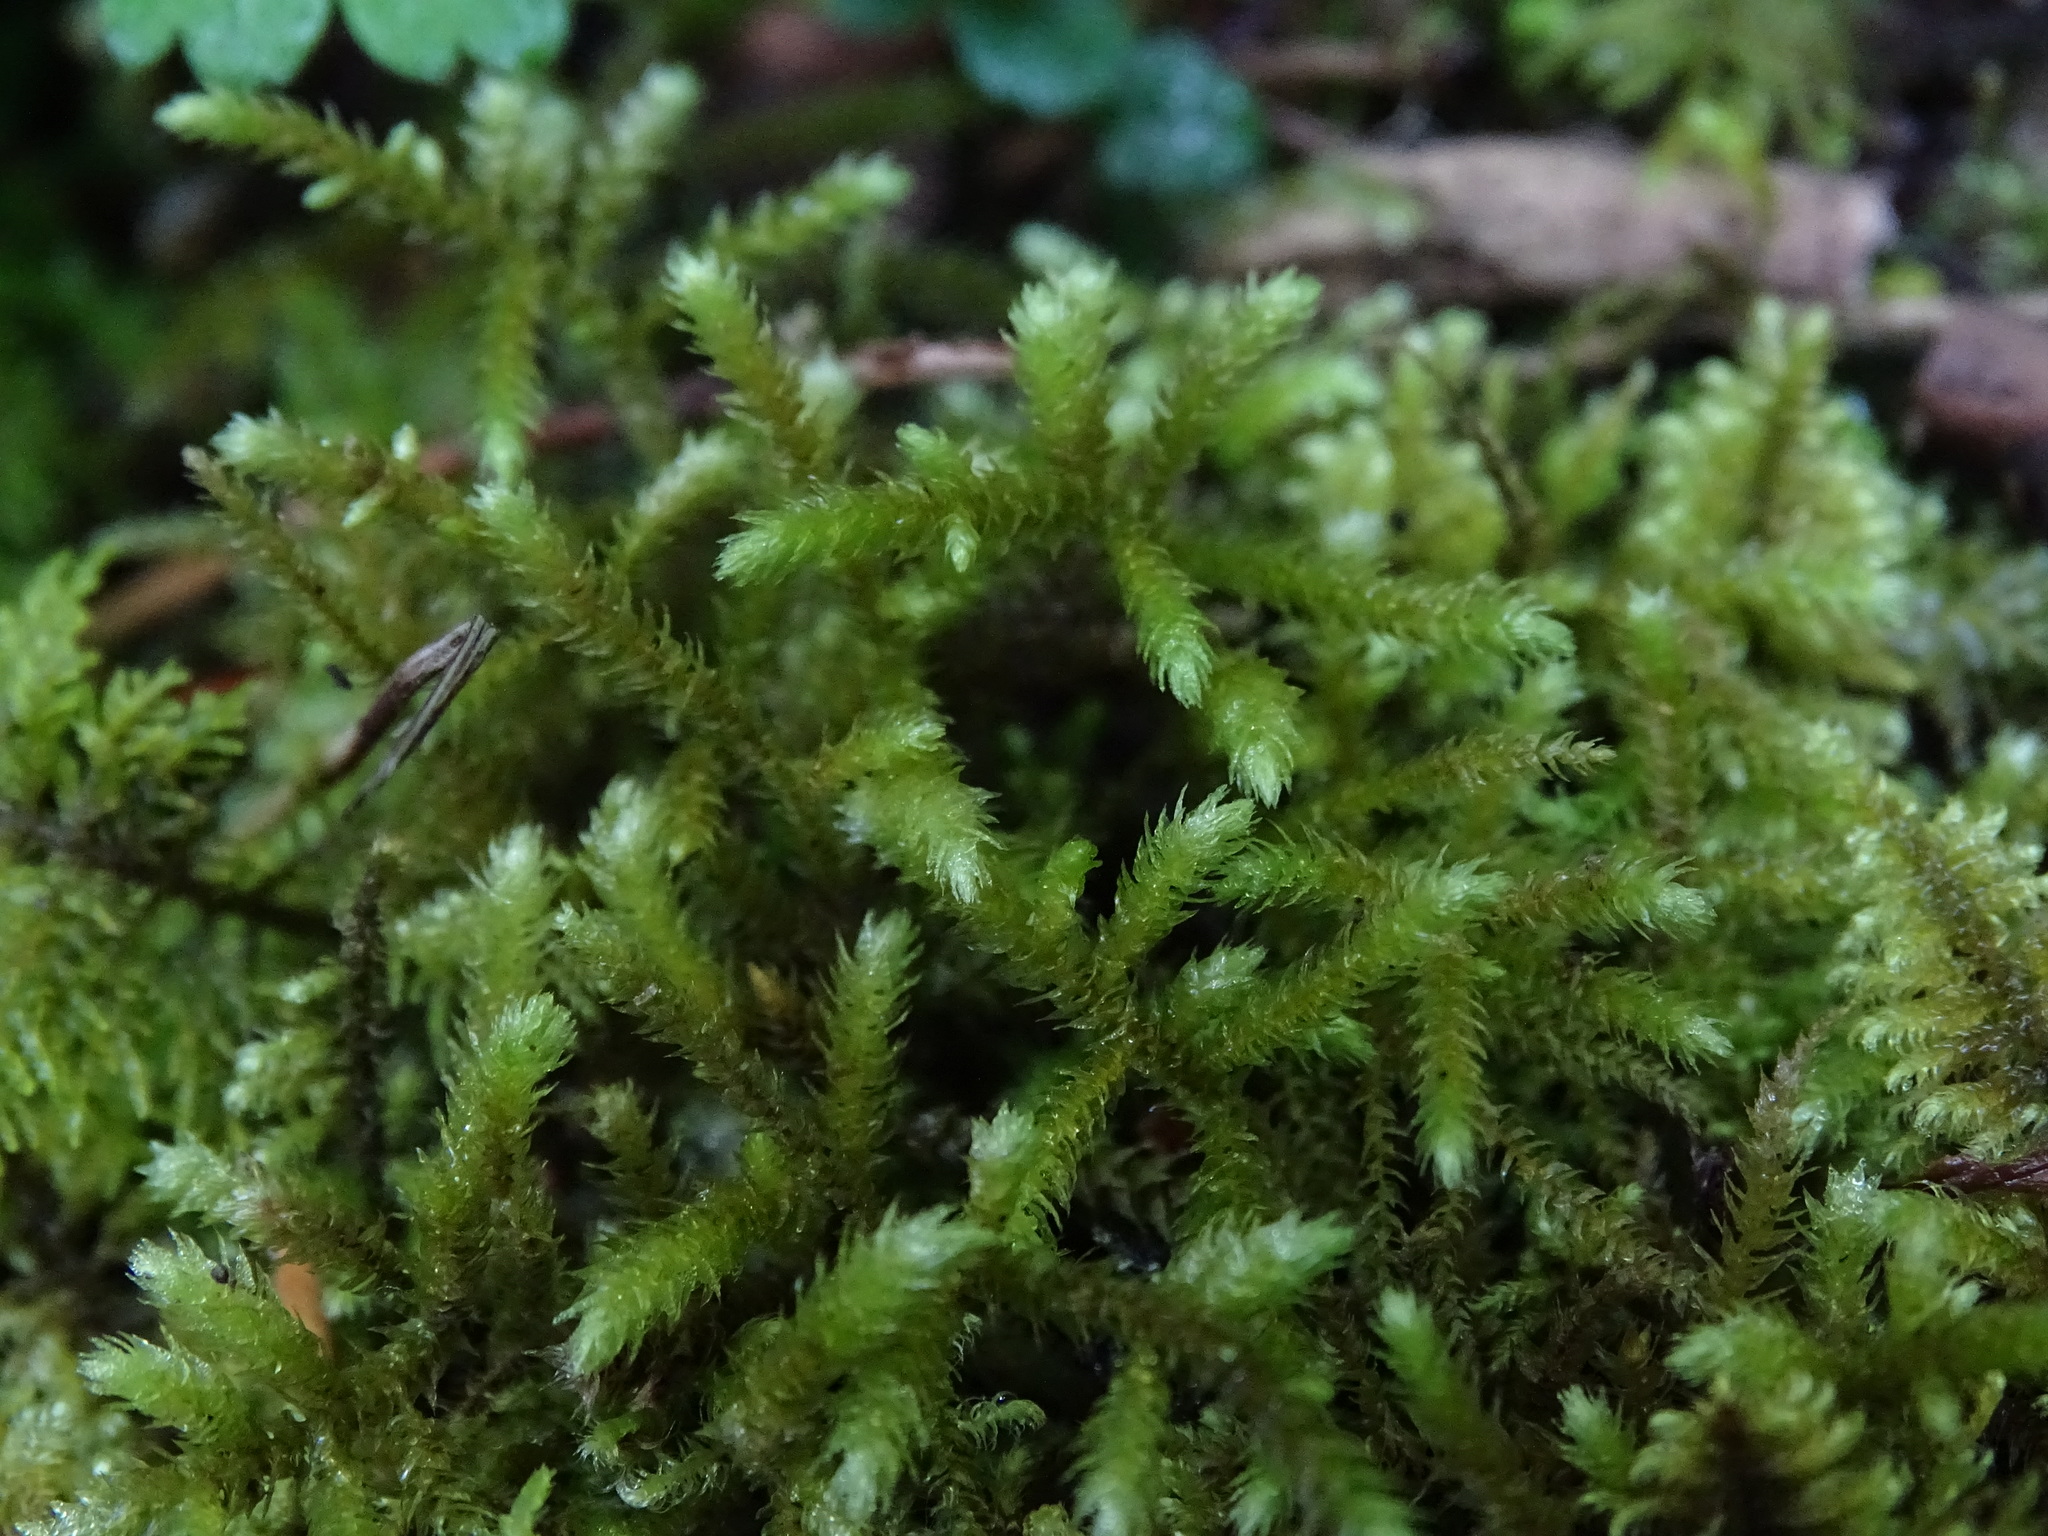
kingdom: Plantae
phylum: Bryophyta
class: Bryopsida
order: Hypnales
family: Brachytheciaceae
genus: Eurhynchium
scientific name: Eurhynchium striatum
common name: Common striated feather-moss
